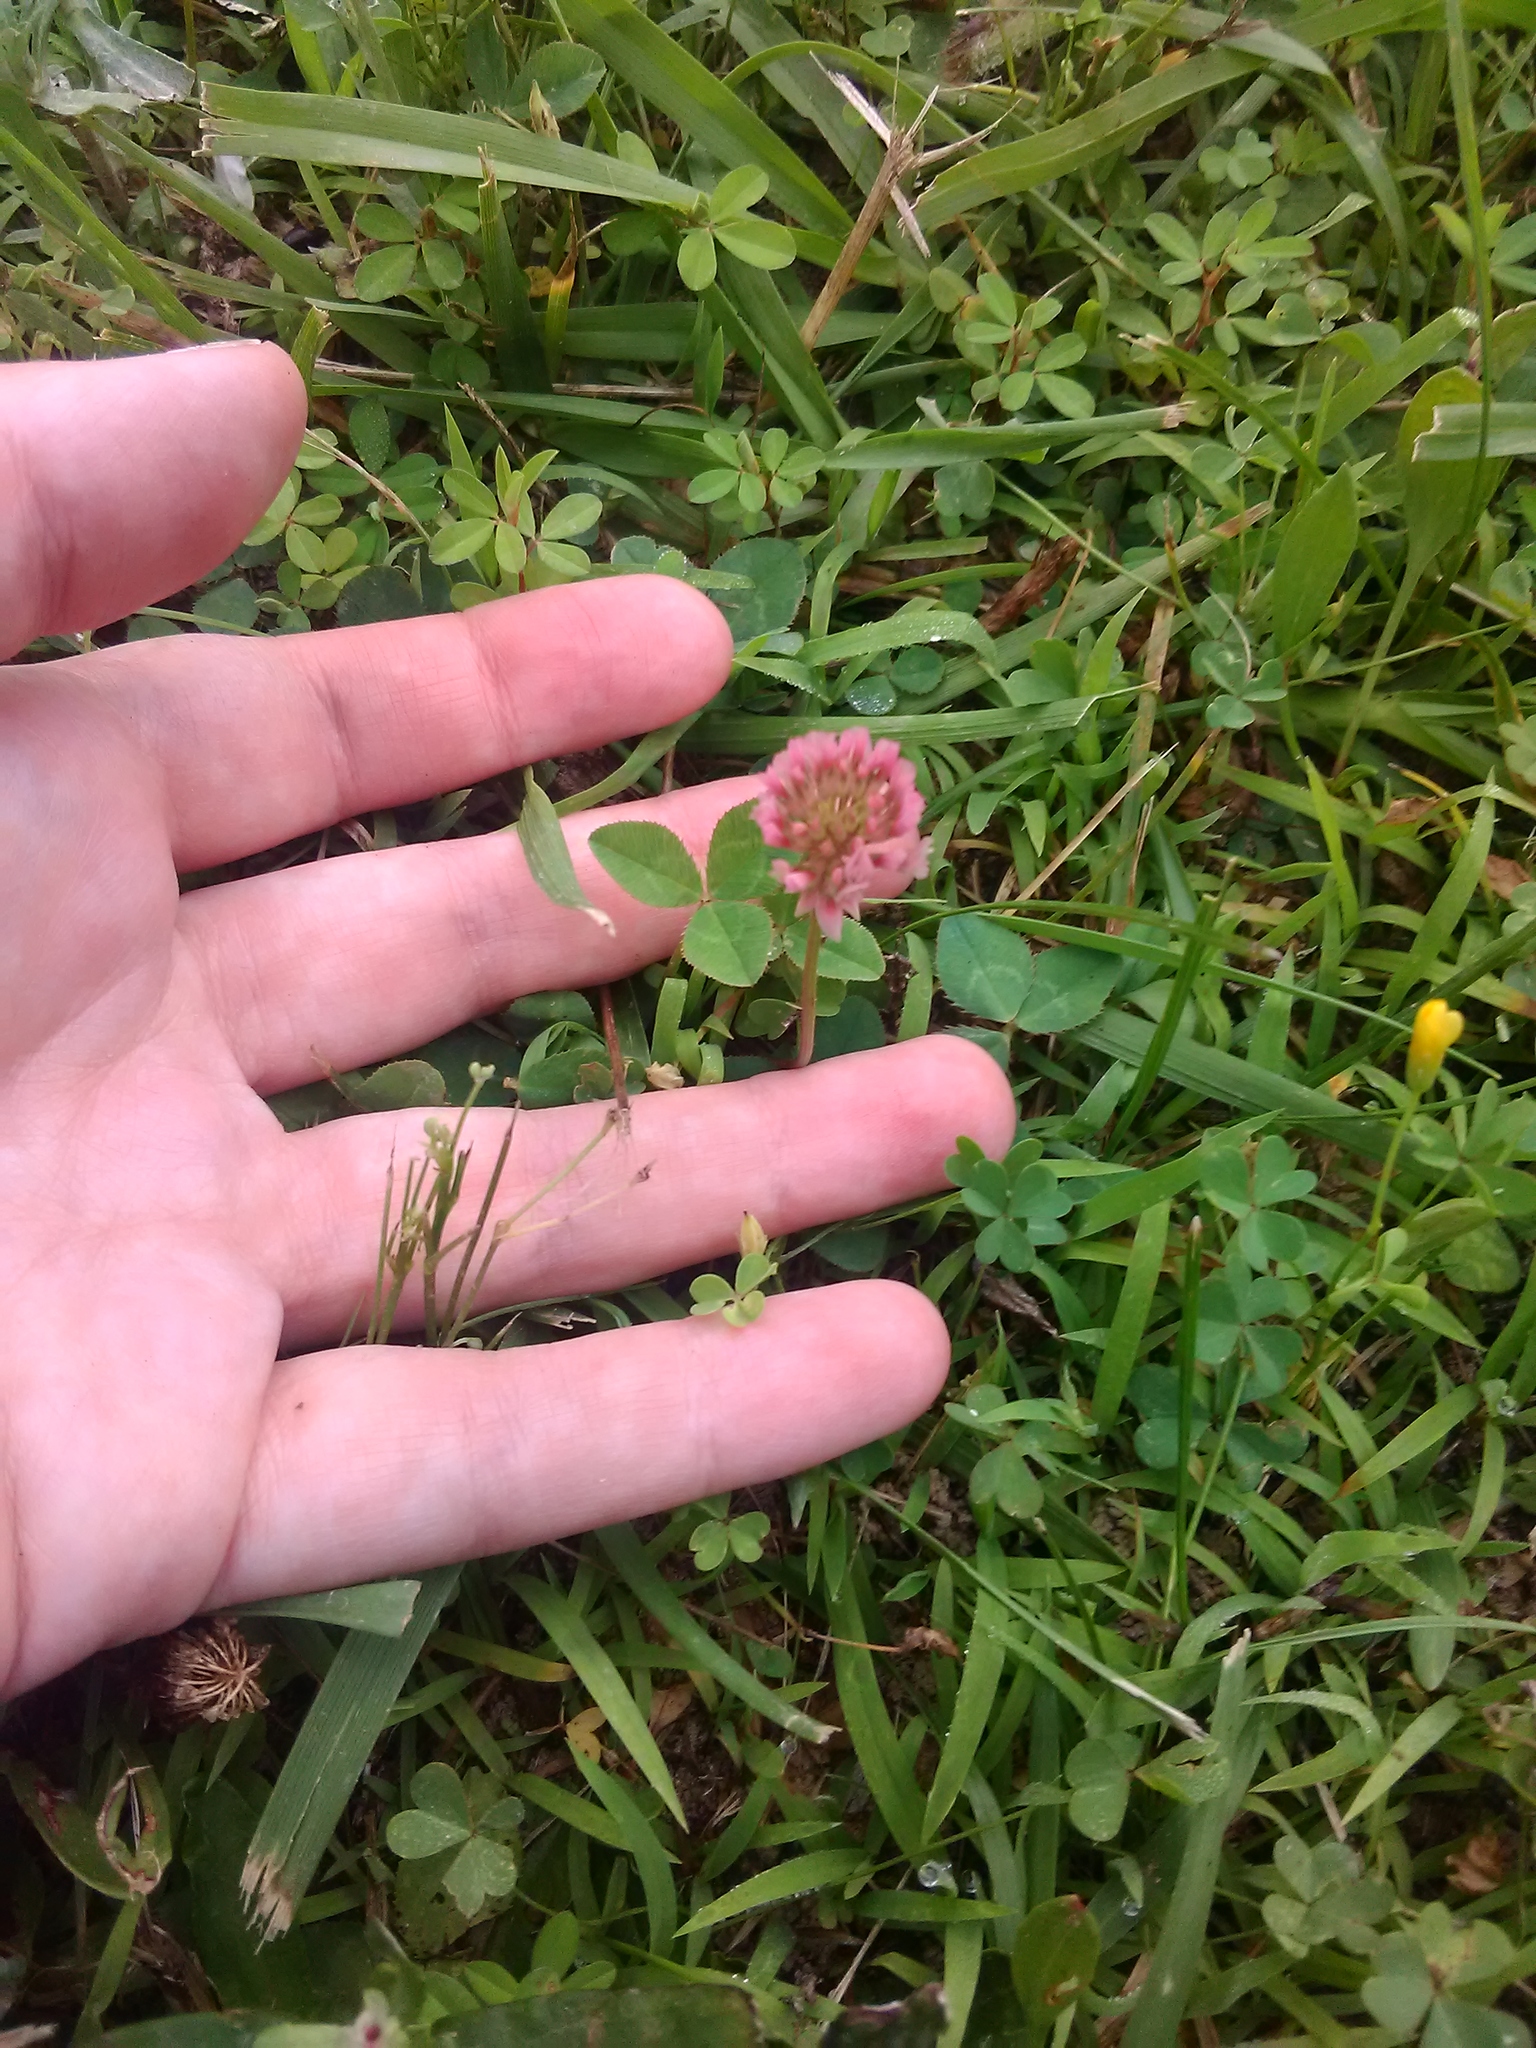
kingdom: Plantae
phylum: Tracheophyta
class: Magnoliopsida
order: Fabales
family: Fabaceae
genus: Trifolium
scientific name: Trifolium repens
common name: White clover
